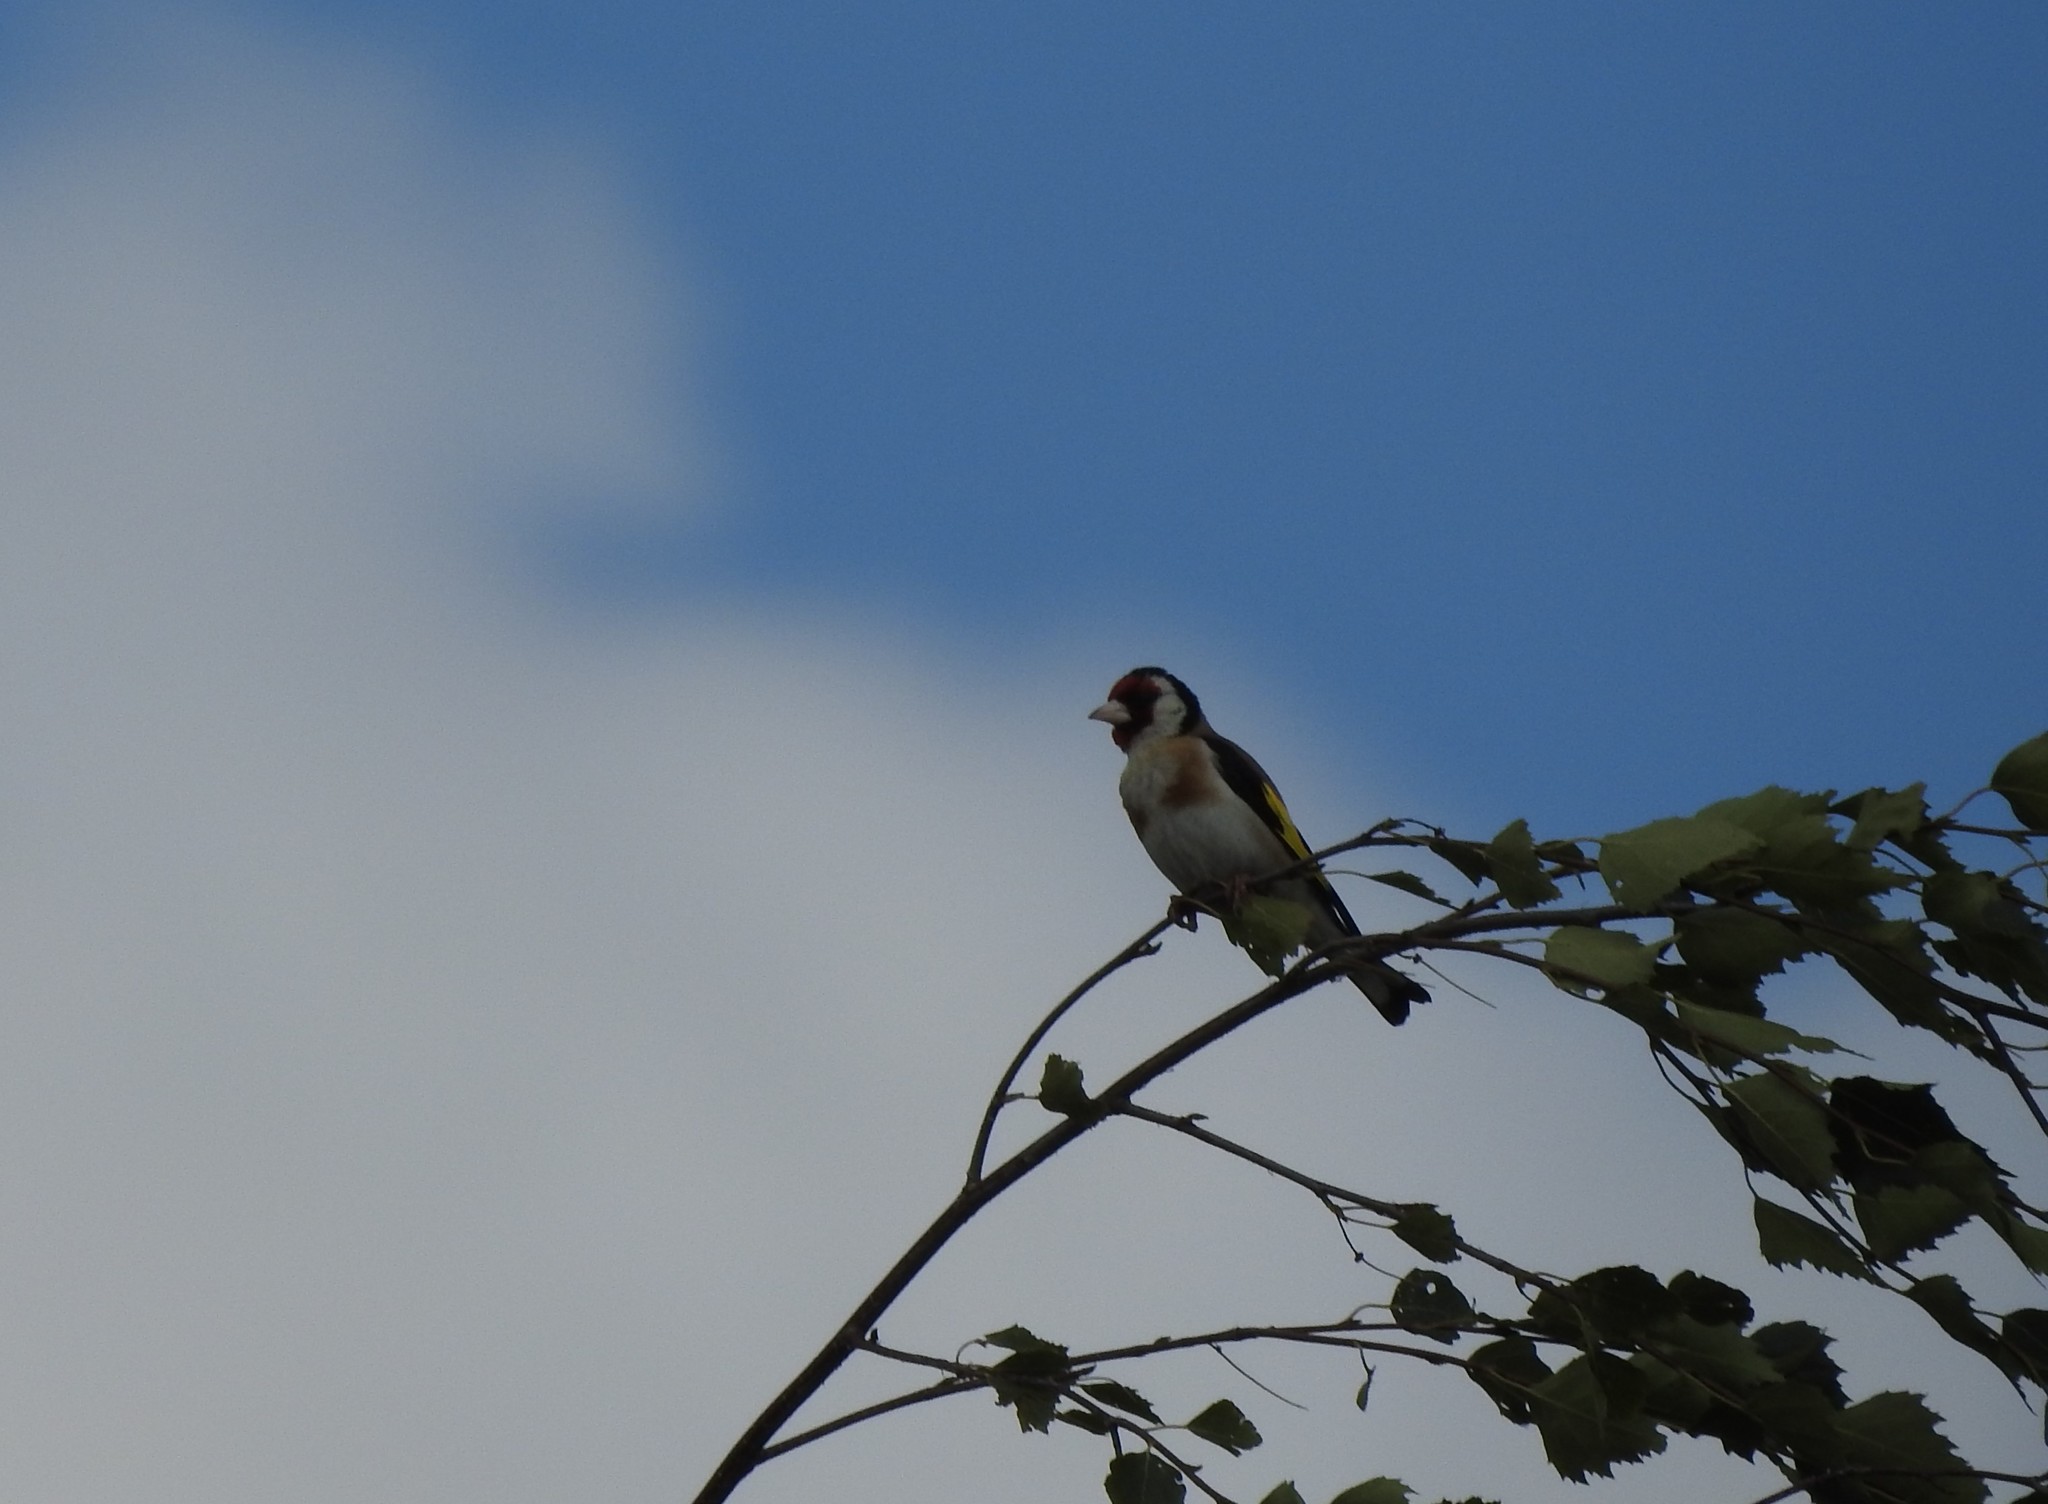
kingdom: Animalia
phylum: Chordata
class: Aves
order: Passeriformes
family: Fringillidae
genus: Carduelis
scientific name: Carduelis carduelis
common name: European goldfinch
